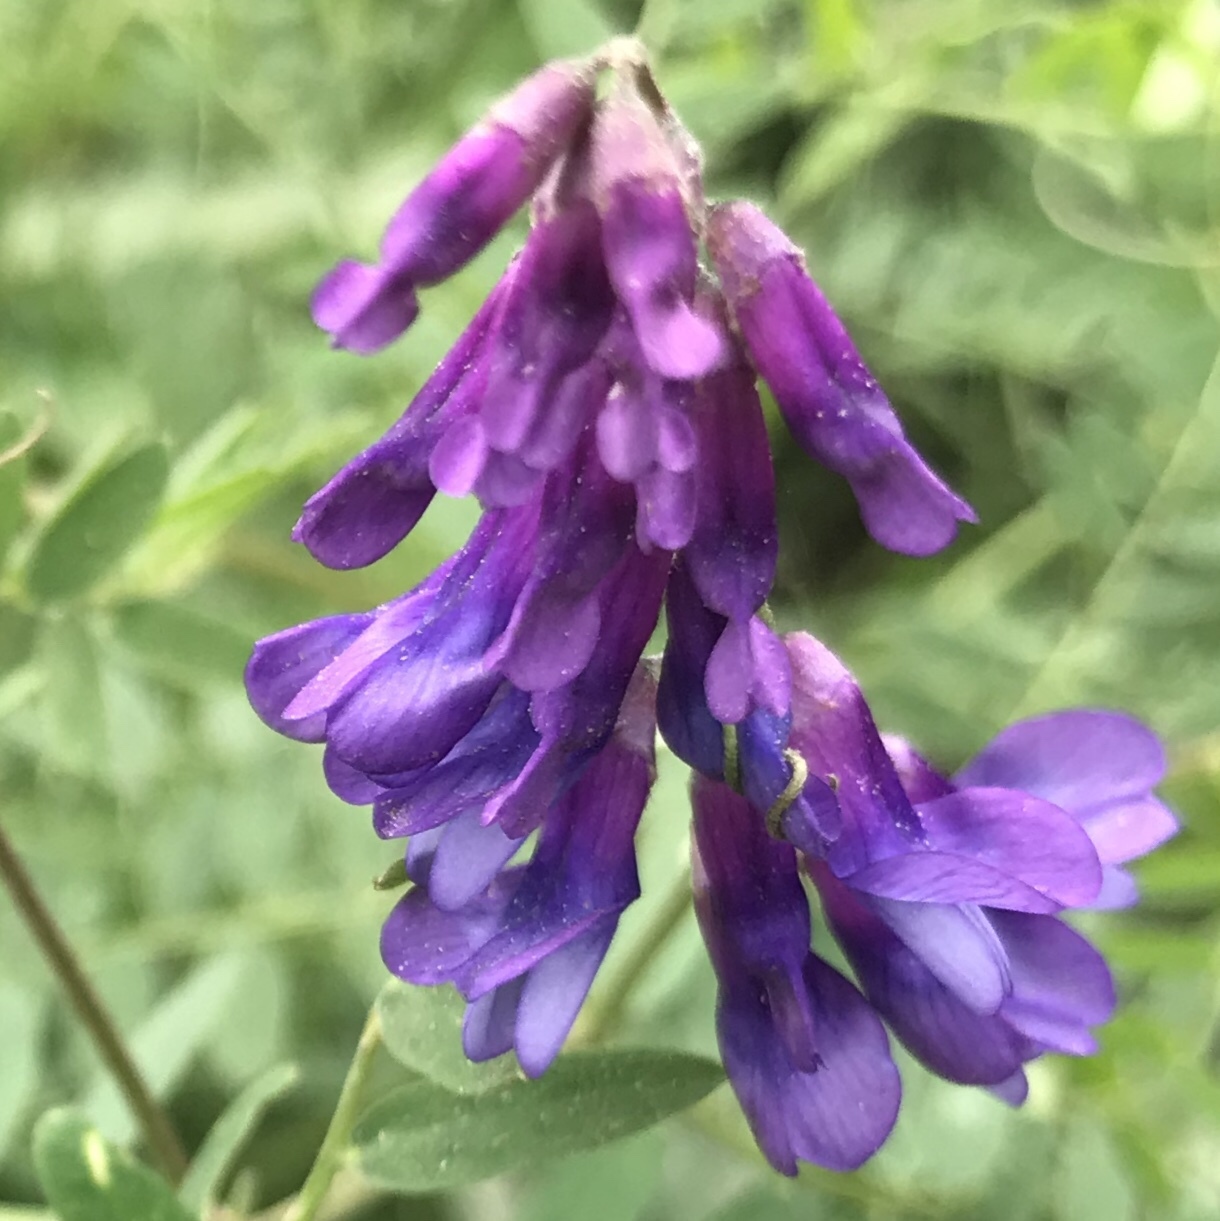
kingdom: Plantae
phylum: Tracheophyta
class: Magnoliopsida
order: Fabales
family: Fabaceae
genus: Vicia
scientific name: Vicia cracca
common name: Bird vetch
